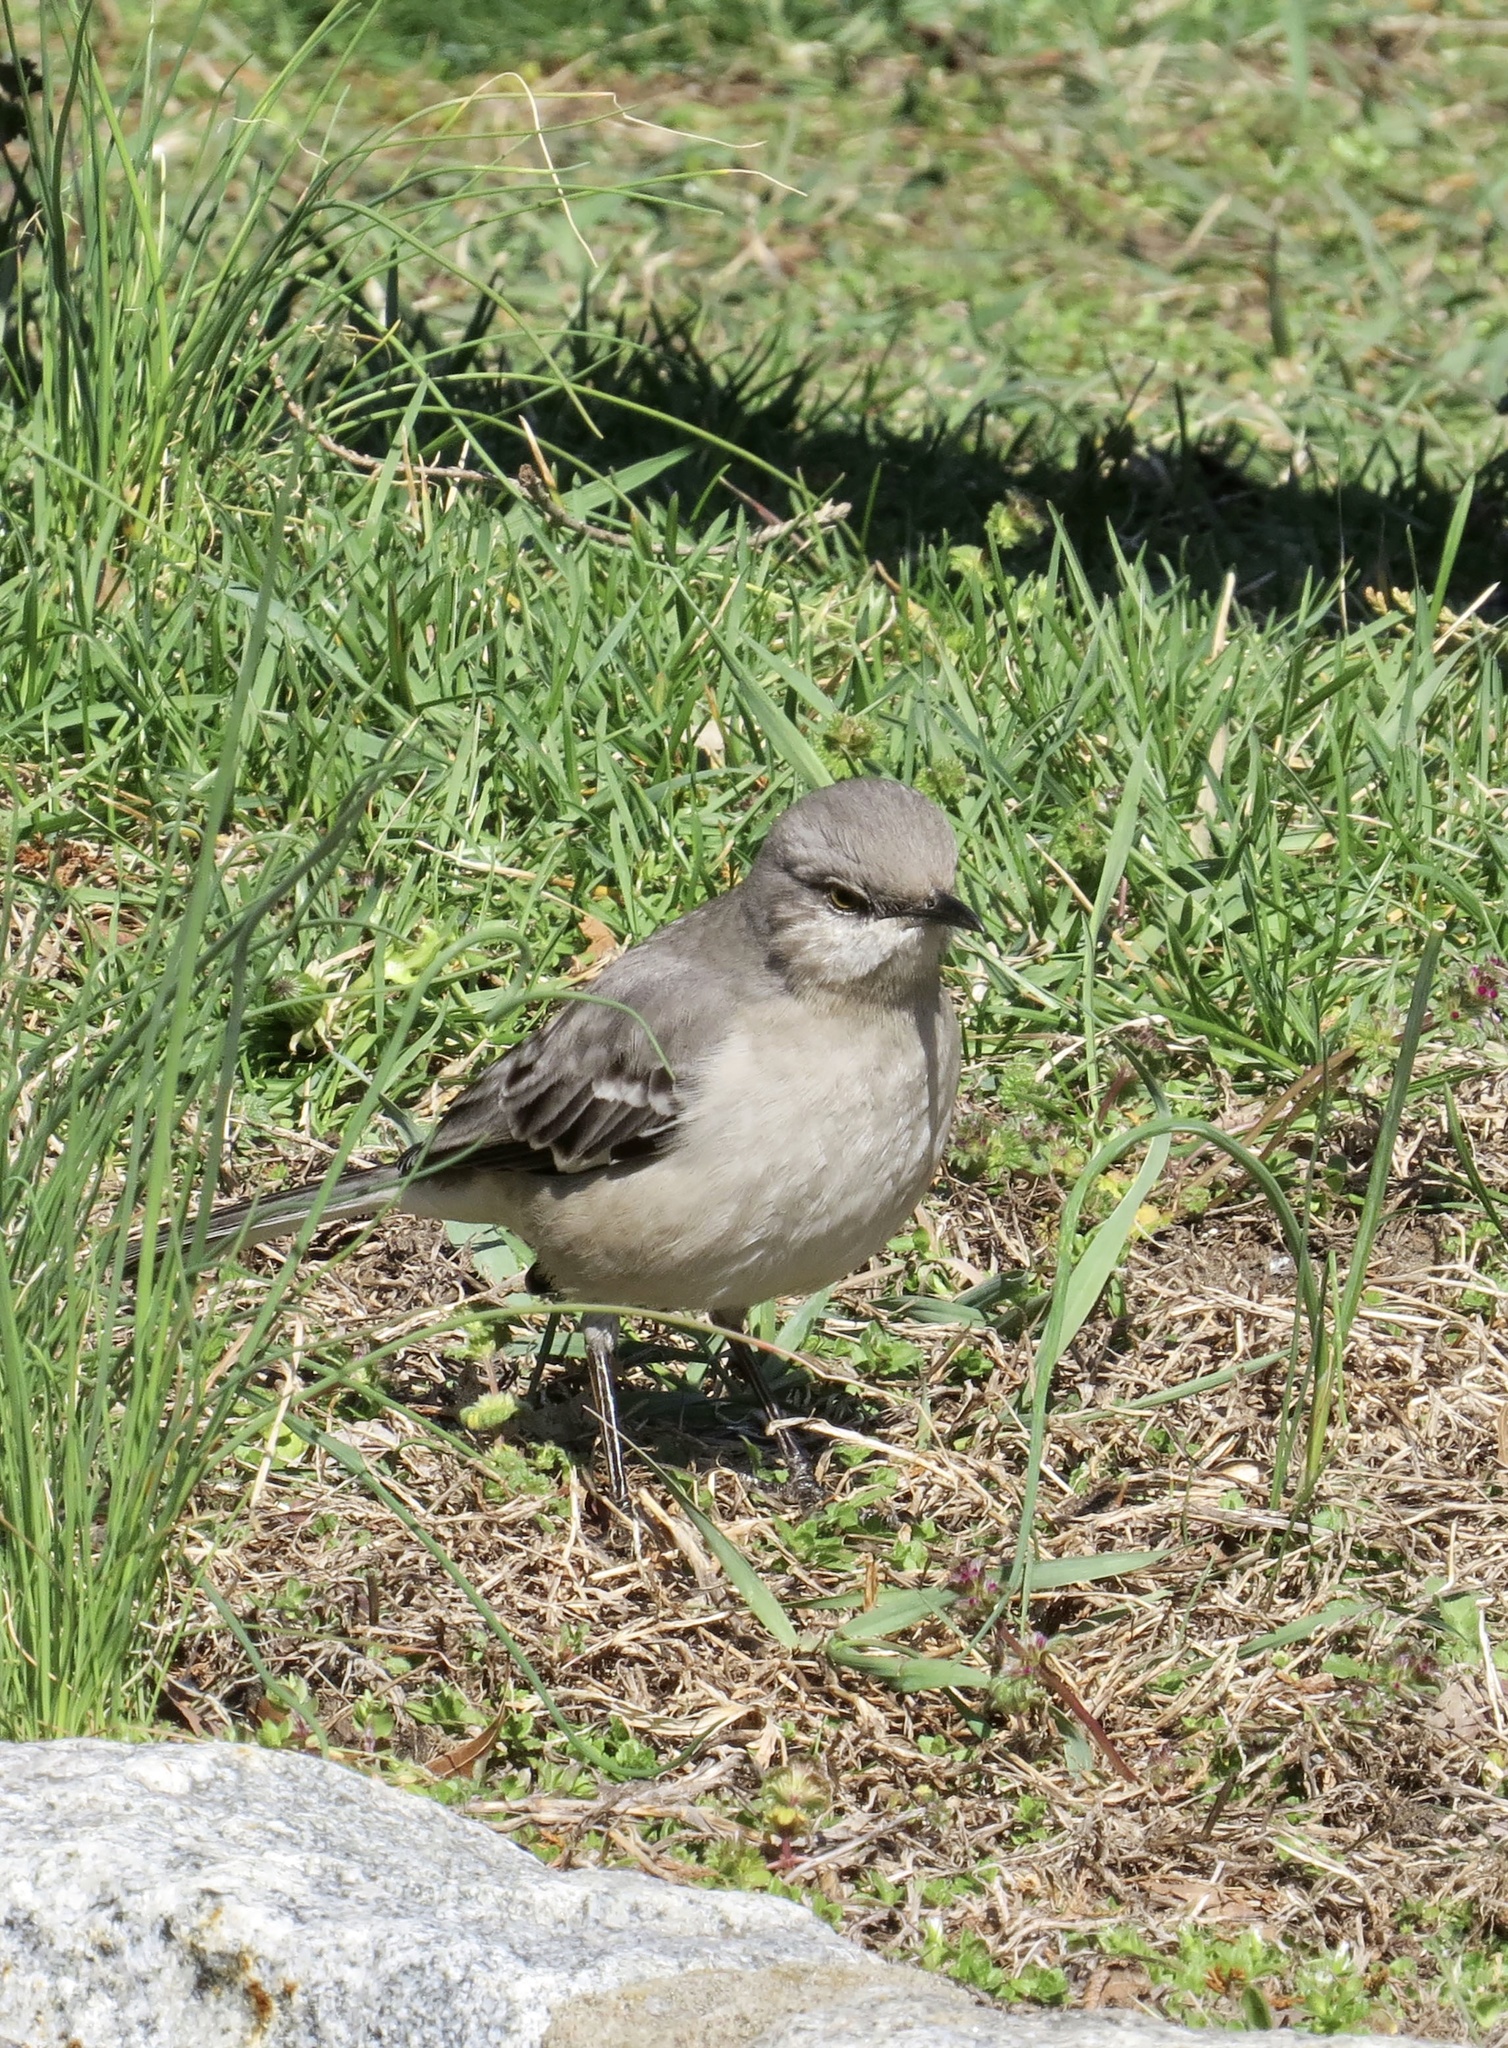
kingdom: Animalia
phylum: Chordata
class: Aves
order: Passeriformes
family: Mimidae
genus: Mimus
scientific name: Mimus polyglottos
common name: Northern mockingbird
